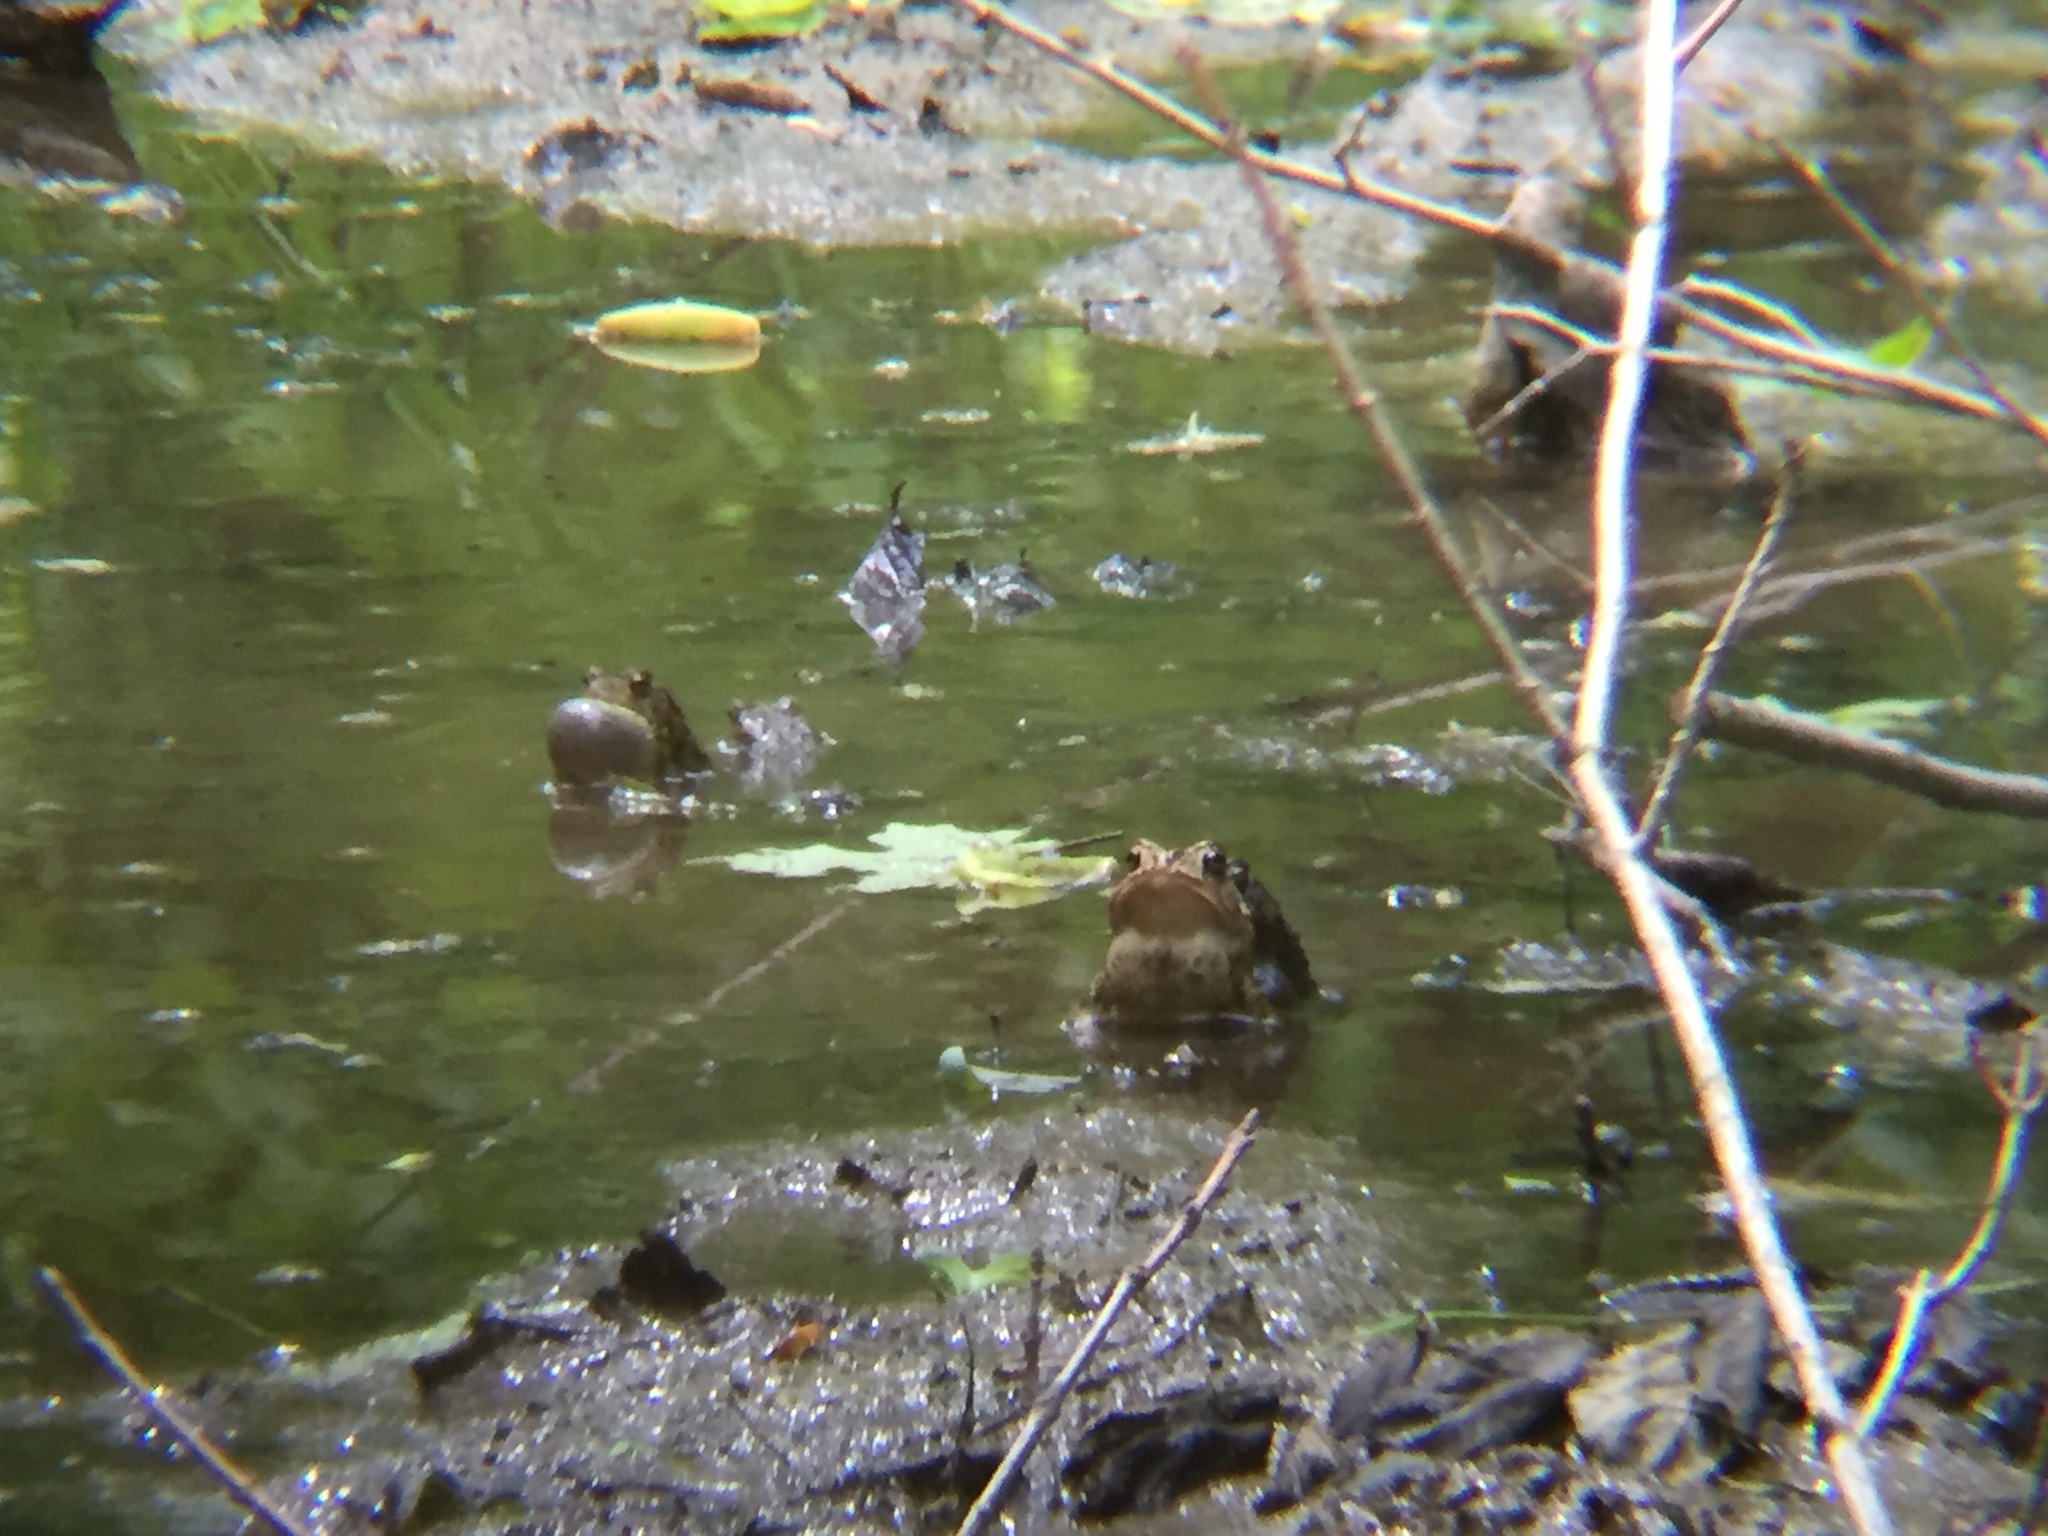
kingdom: Animalia
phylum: Chordata
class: Amphibia
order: Anura
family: Bufonidae
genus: Anaxyrus
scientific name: Anaxyrus americanus
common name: American toad
